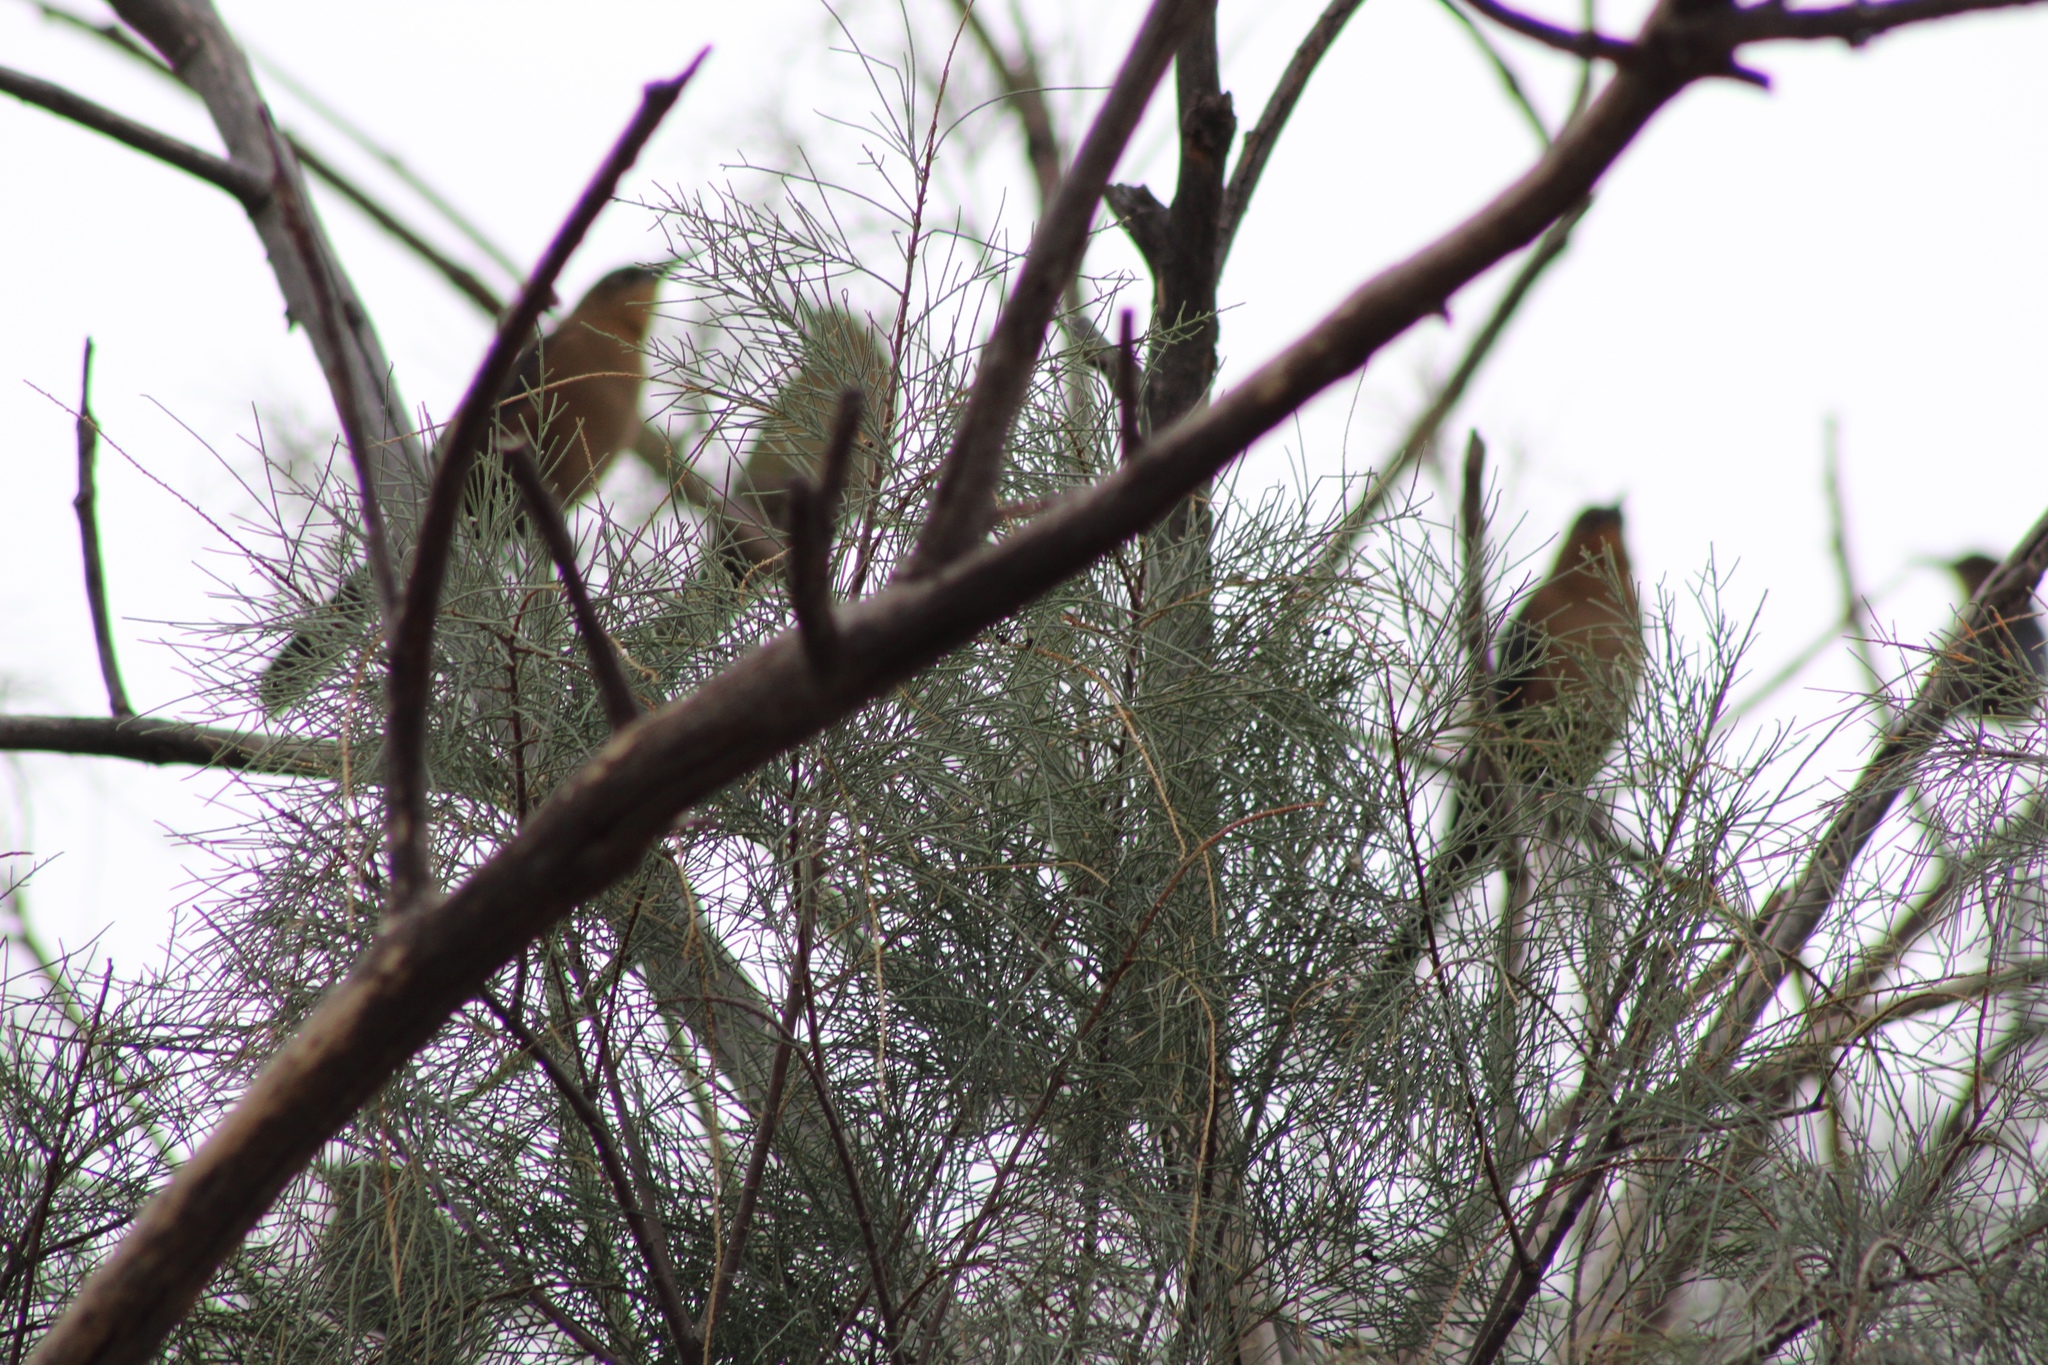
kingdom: Animalia
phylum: Chordata
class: Aves
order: Passeriformes
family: Icteridae
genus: Quiscalus
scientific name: Quiscalus mexicanus
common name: Great-tailed grackle
